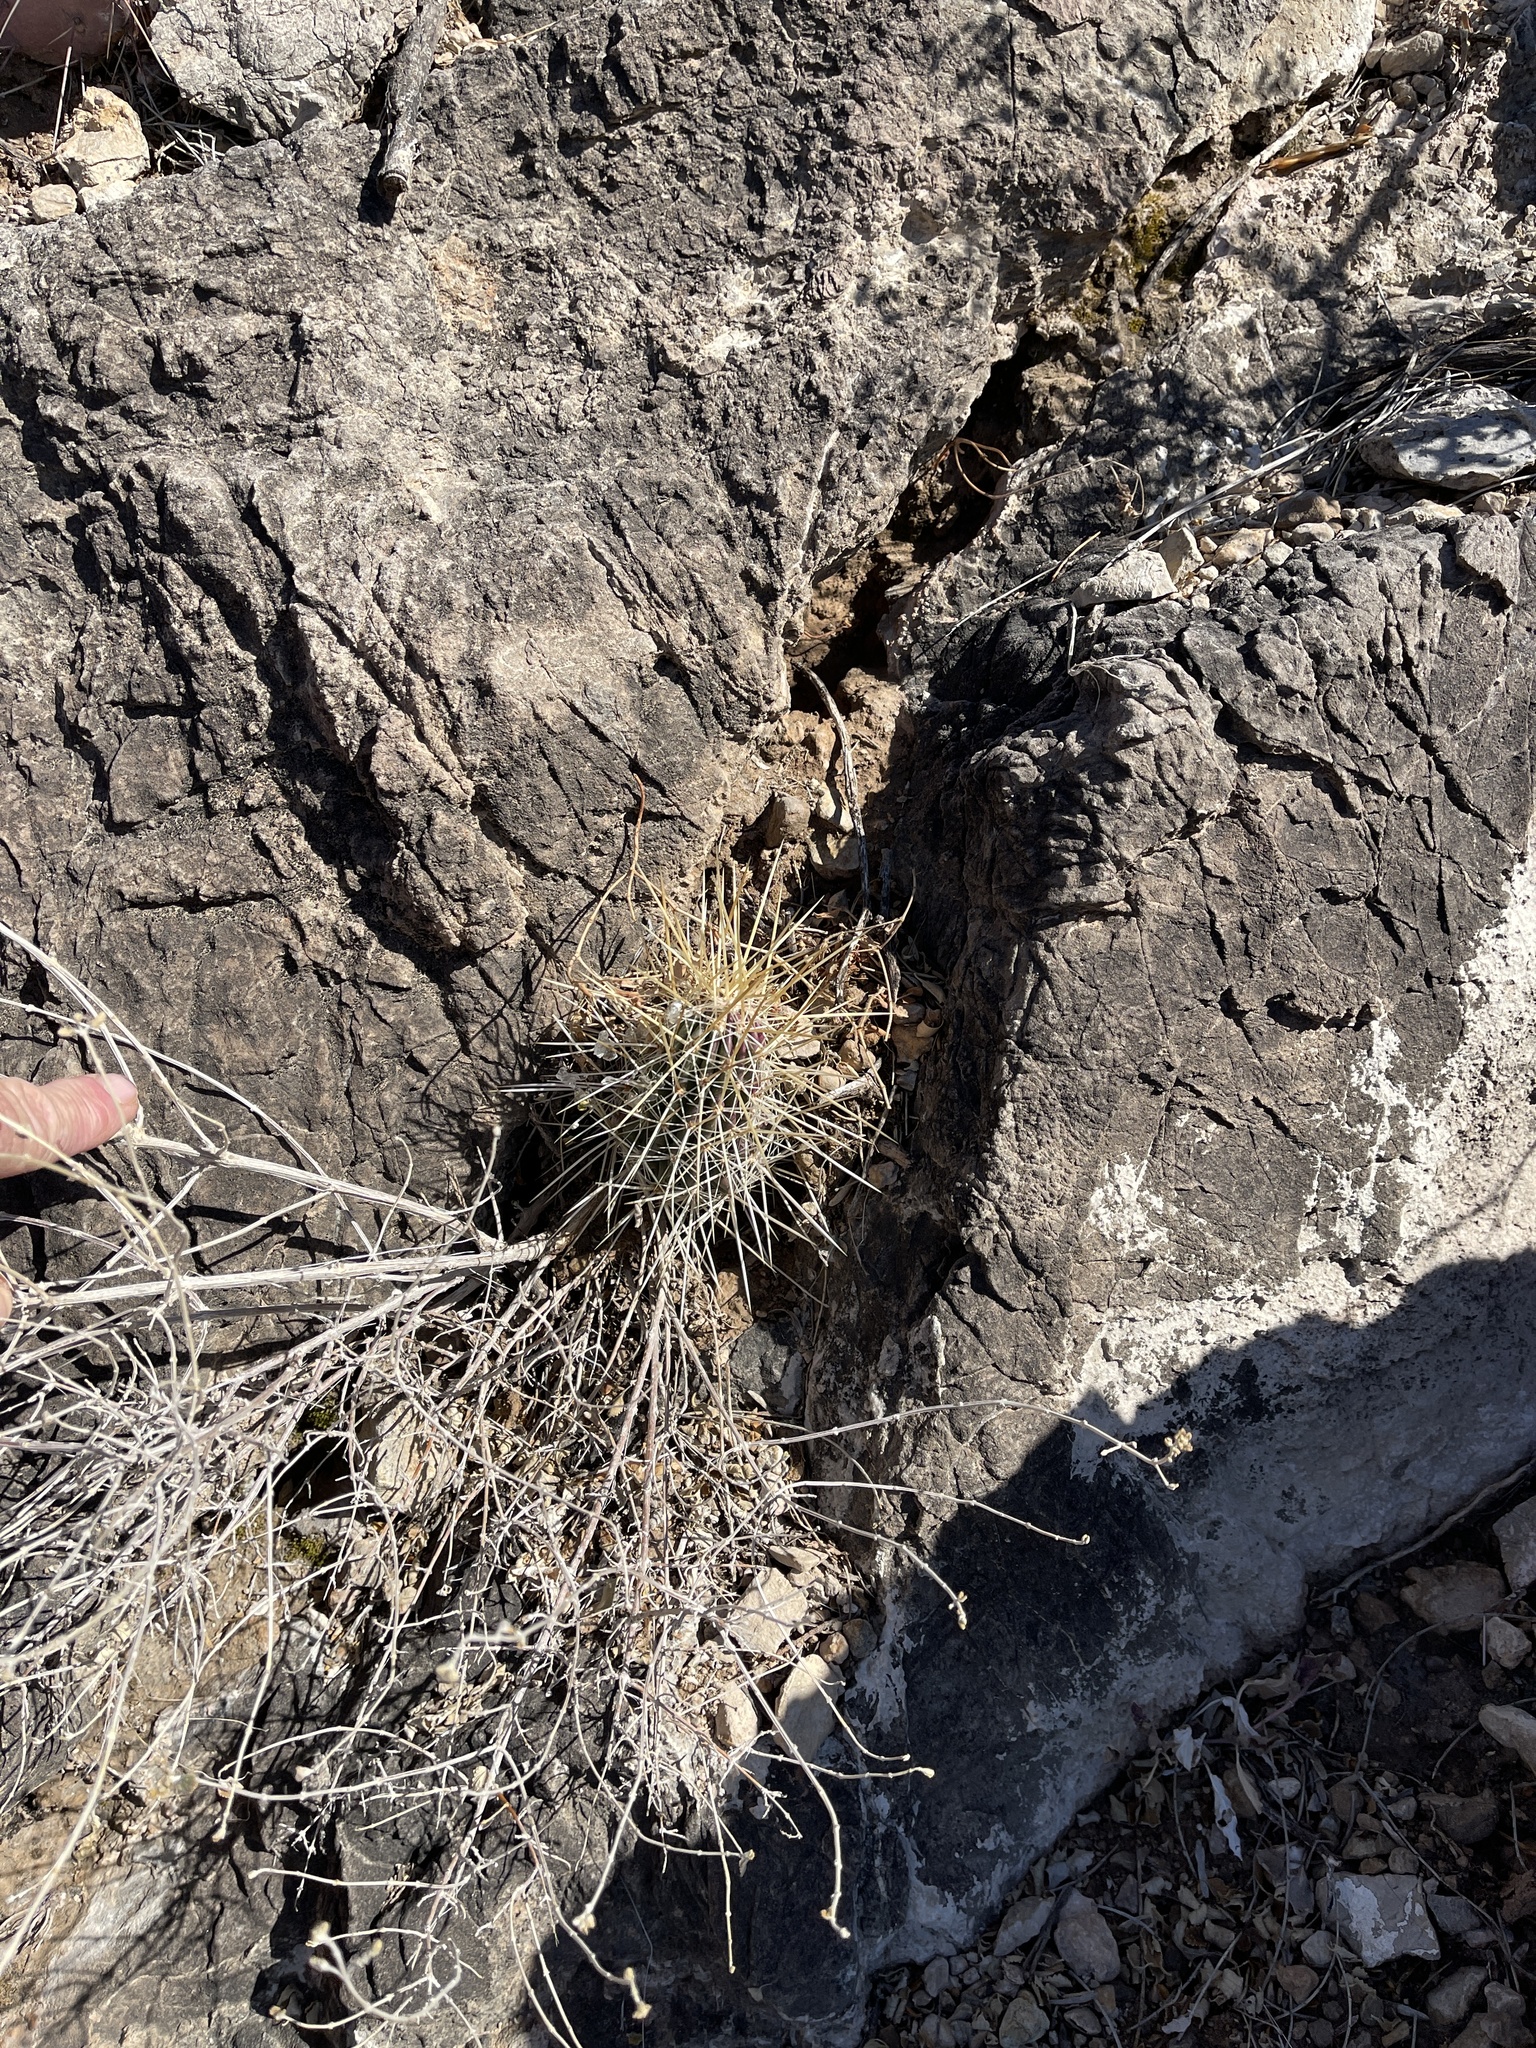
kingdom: Plantae
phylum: Tracheophyta
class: Magnoliopsida
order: Caryophyllales
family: Cactaceae
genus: Echinocereus
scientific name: Echinocereus stramineus
